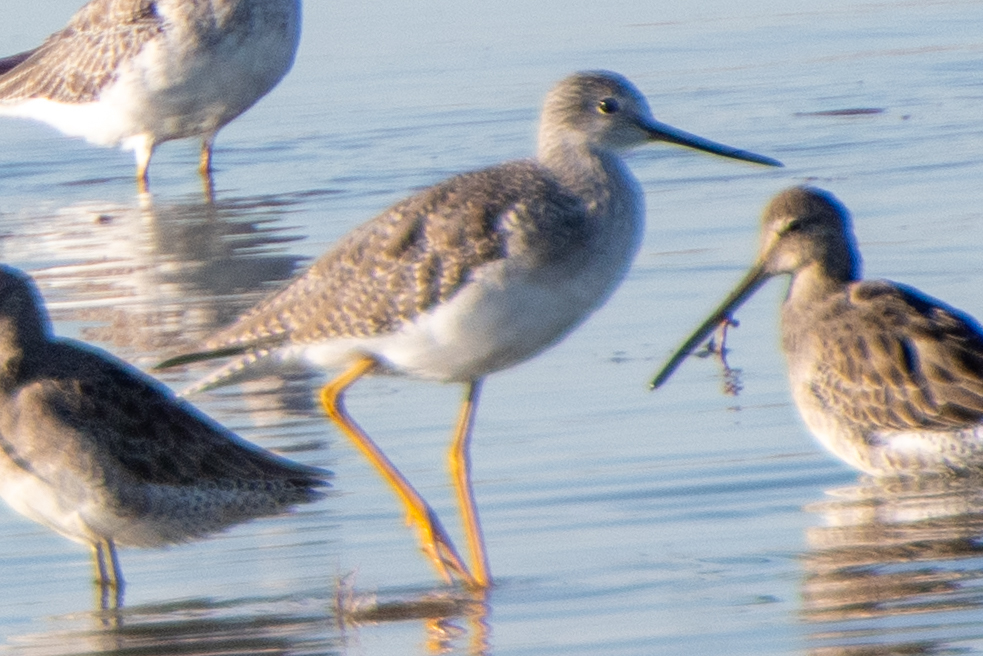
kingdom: Animalia
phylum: Chordata
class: Aves
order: Charadriiformes
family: Scolopacidae
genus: Tringa
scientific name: Tringa melanoleuca
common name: Greater yellowlegs
